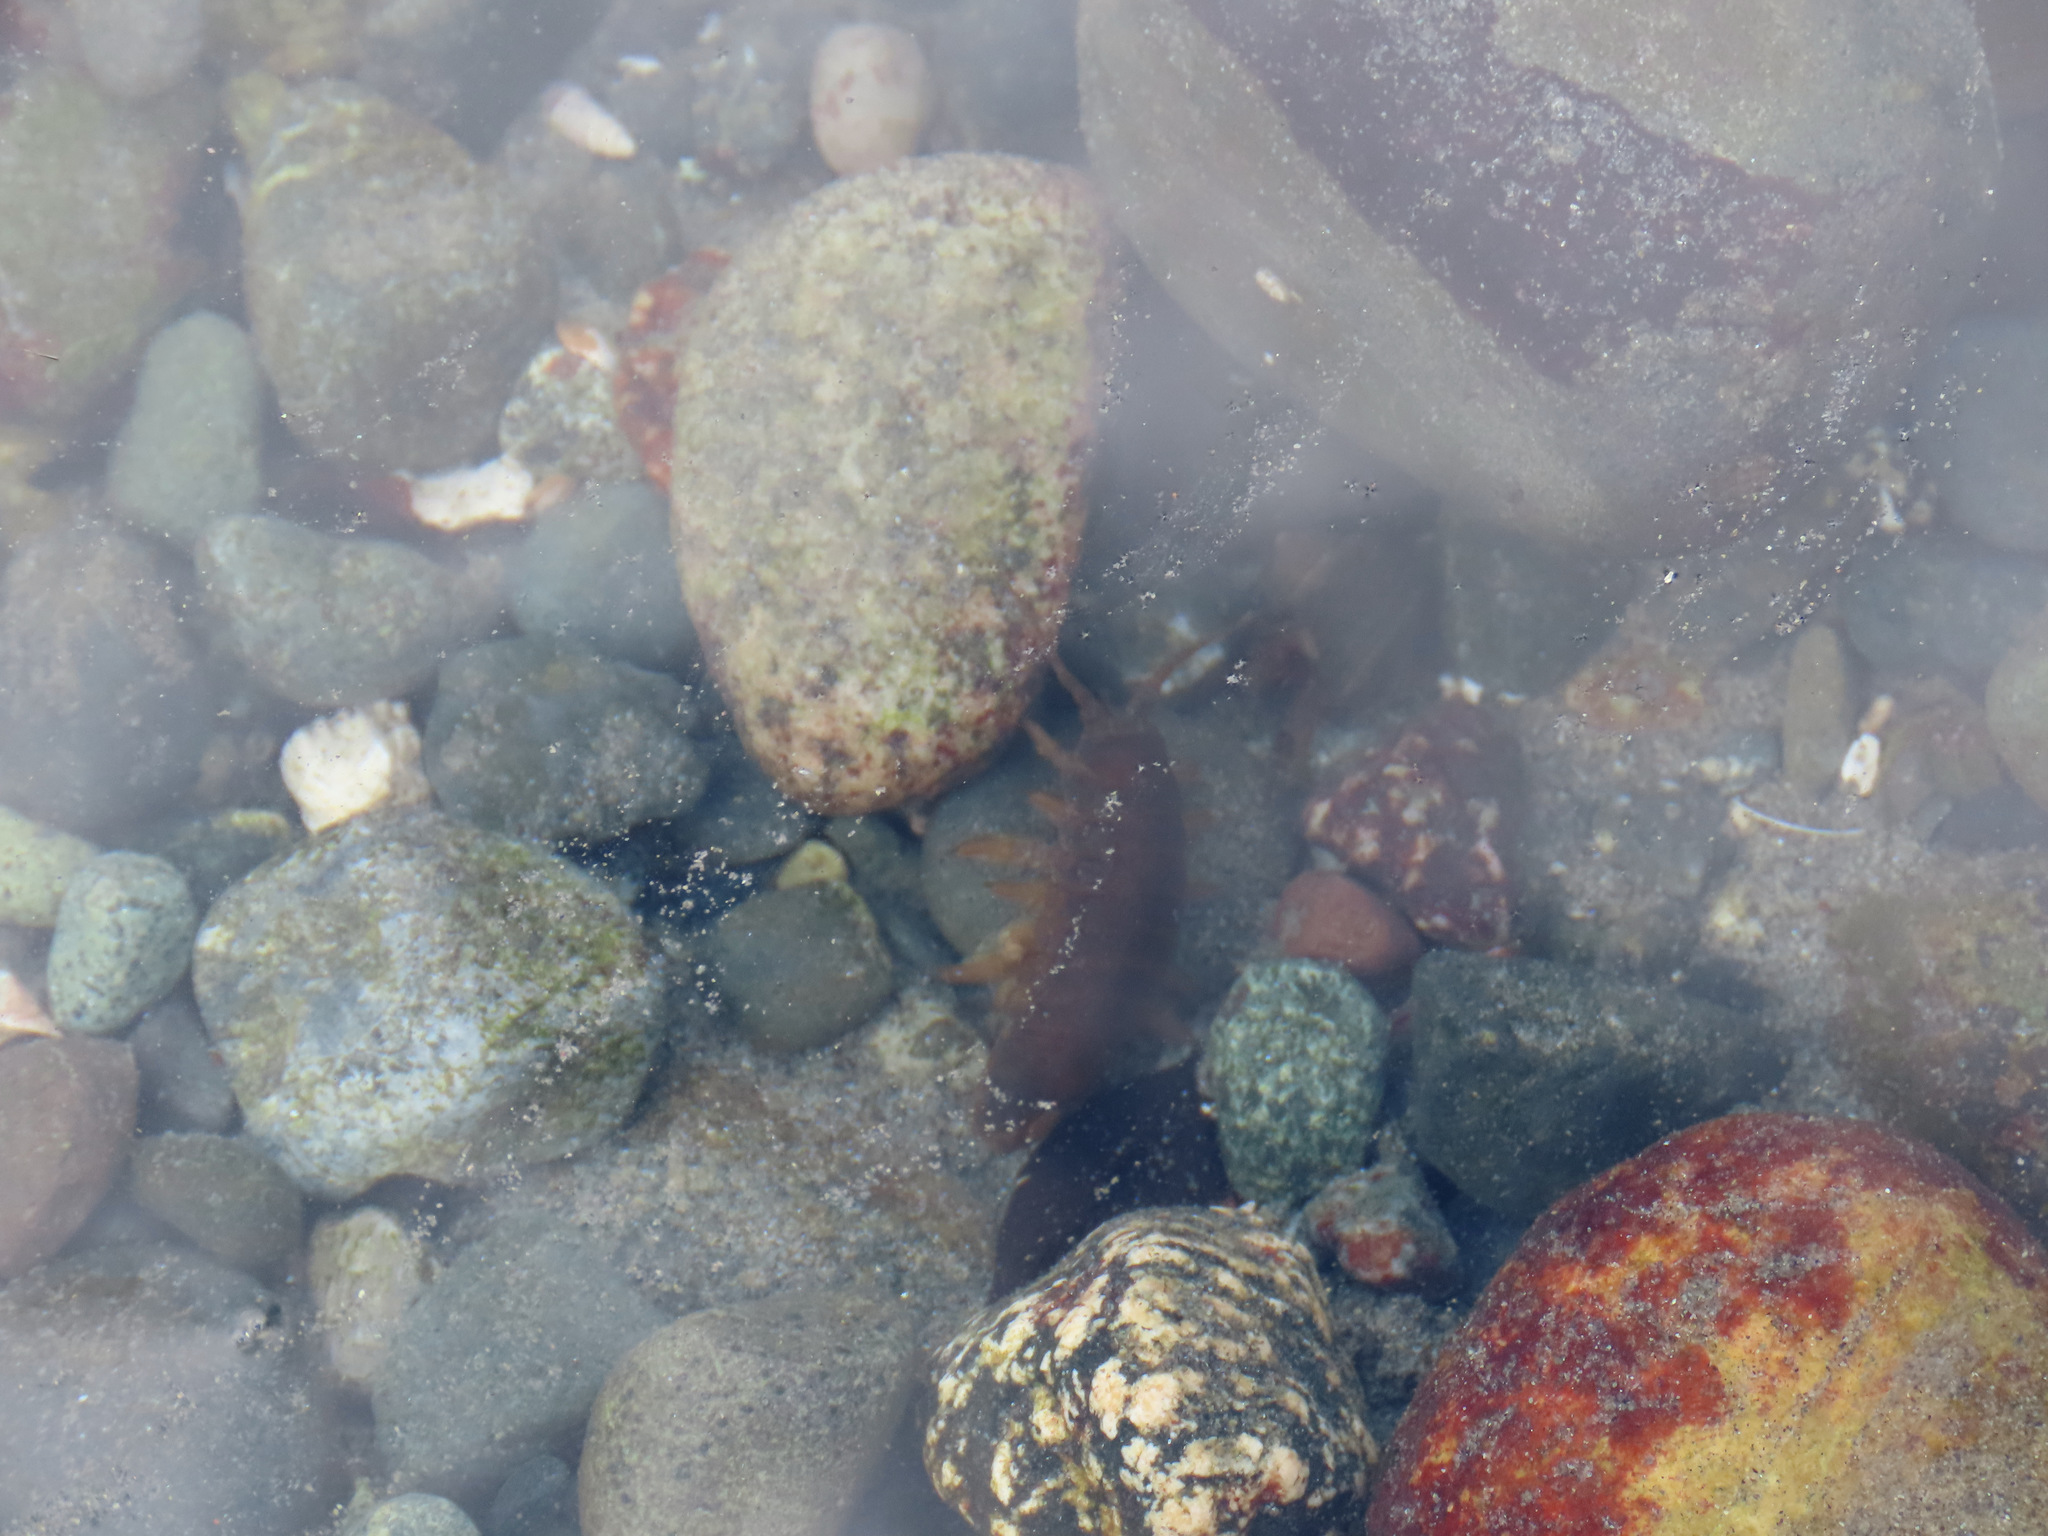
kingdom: Animalia
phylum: Arthropoda
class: Malacostraca
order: Isopoda
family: Idoteidae
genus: Pentidotea
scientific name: Pentidotea wosnesenskii
